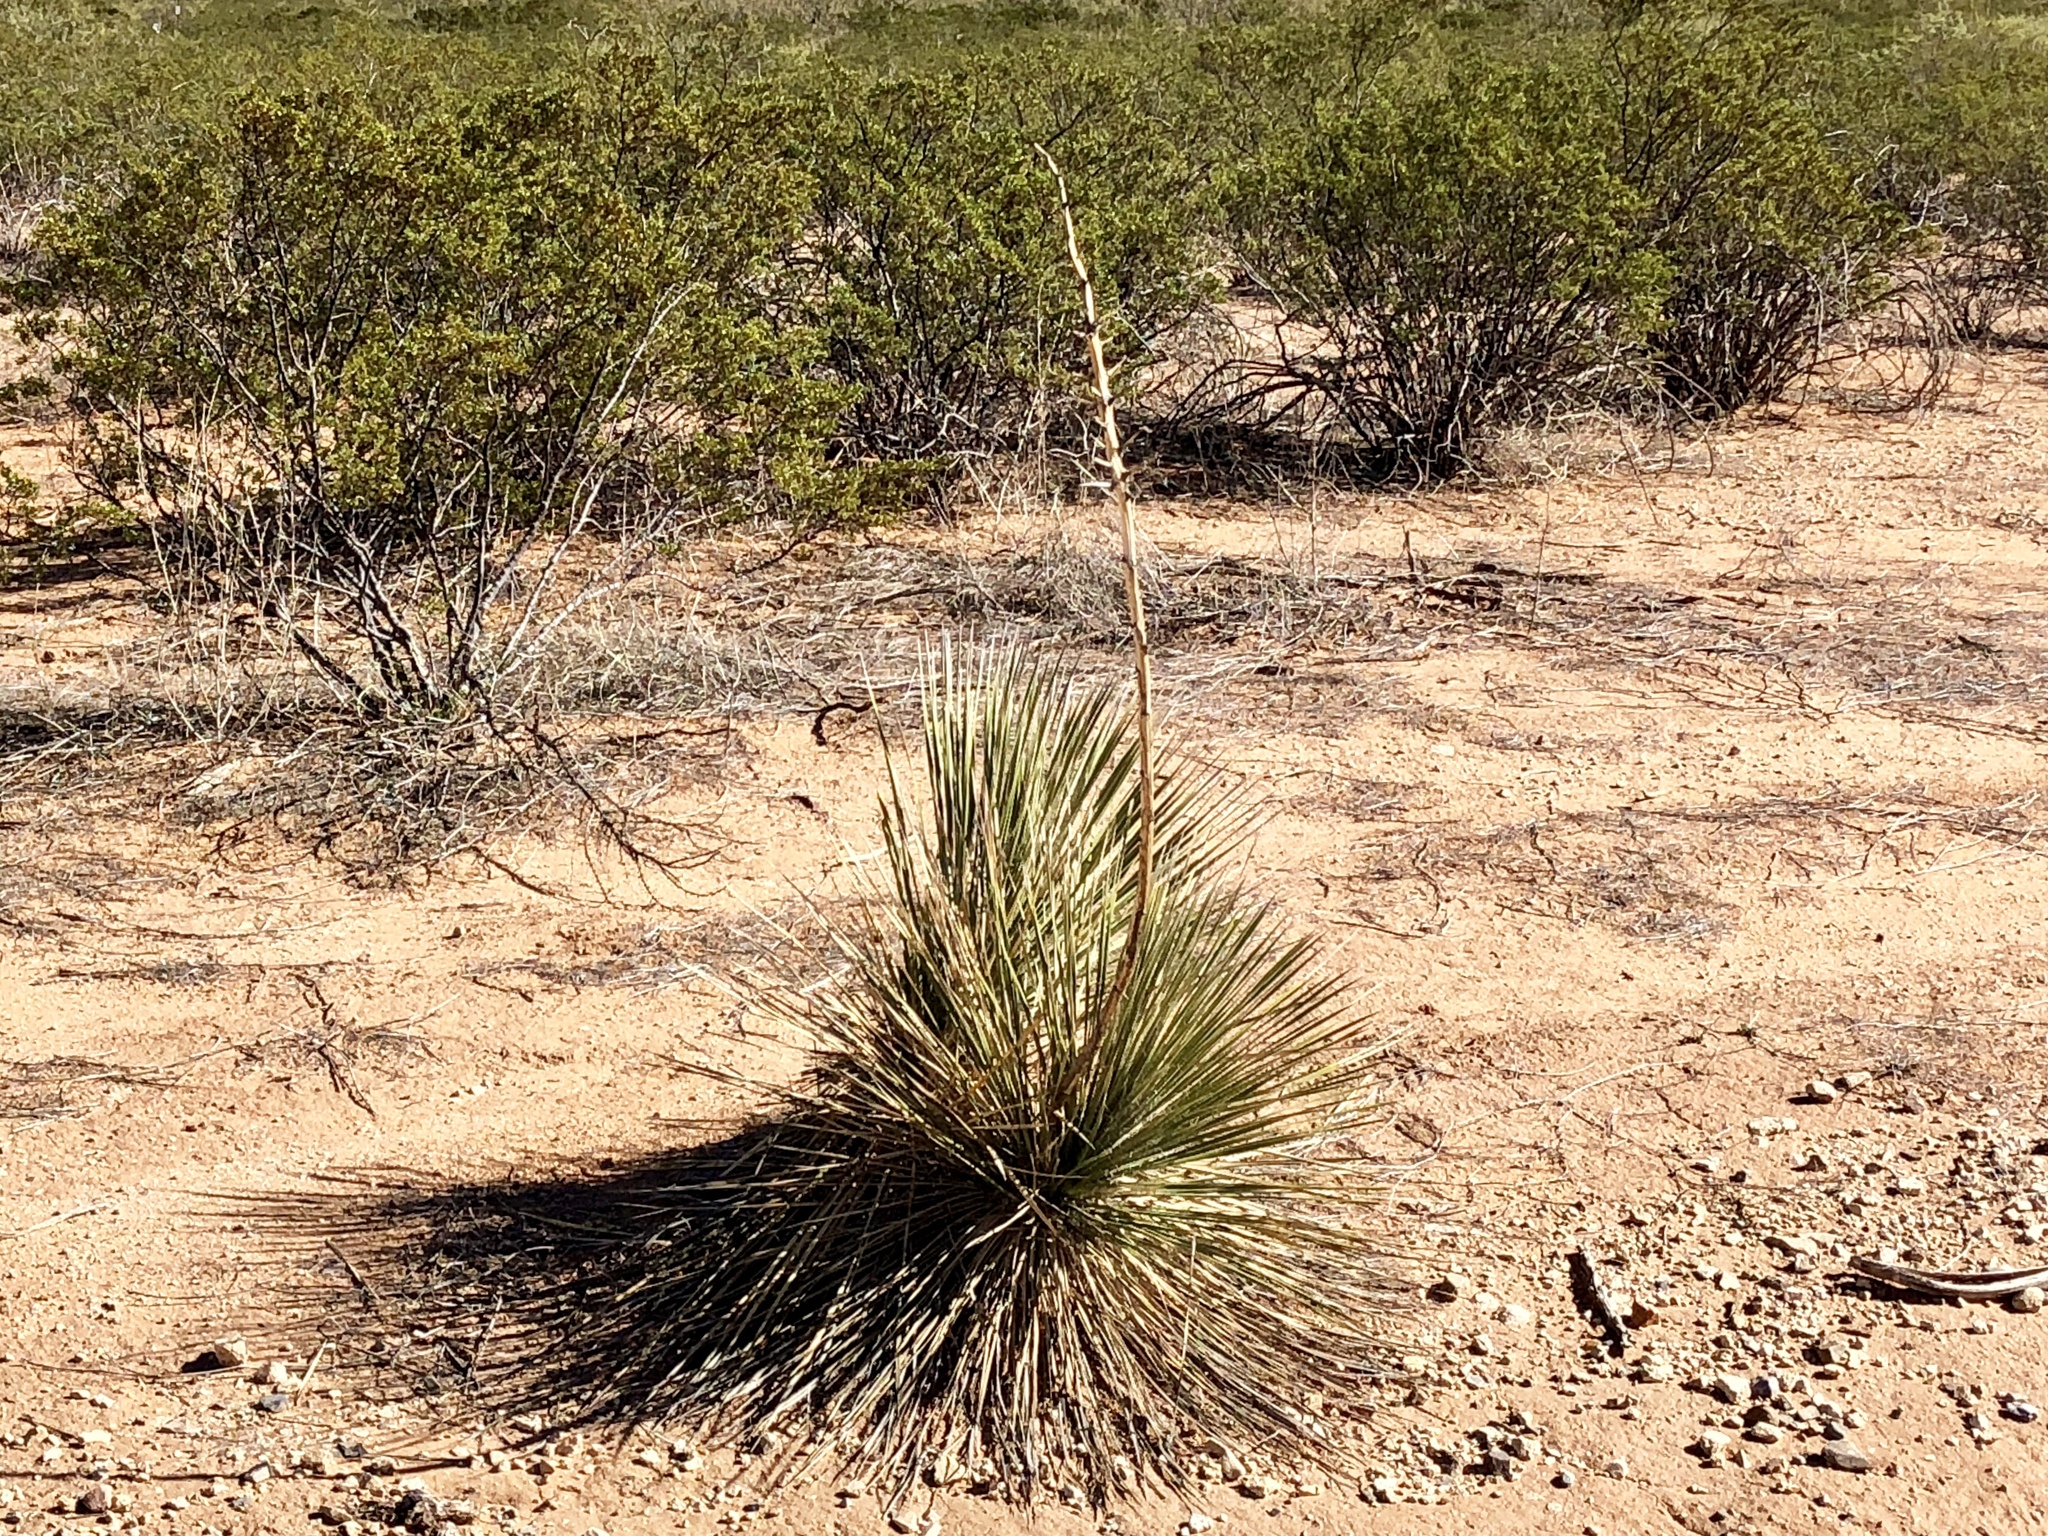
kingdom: Plantae
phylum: Tracheophyta
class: Liliopsida
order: Asparagales
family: Asparagaceae
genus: Yucca
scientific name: Yucca elata
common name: Palmella
